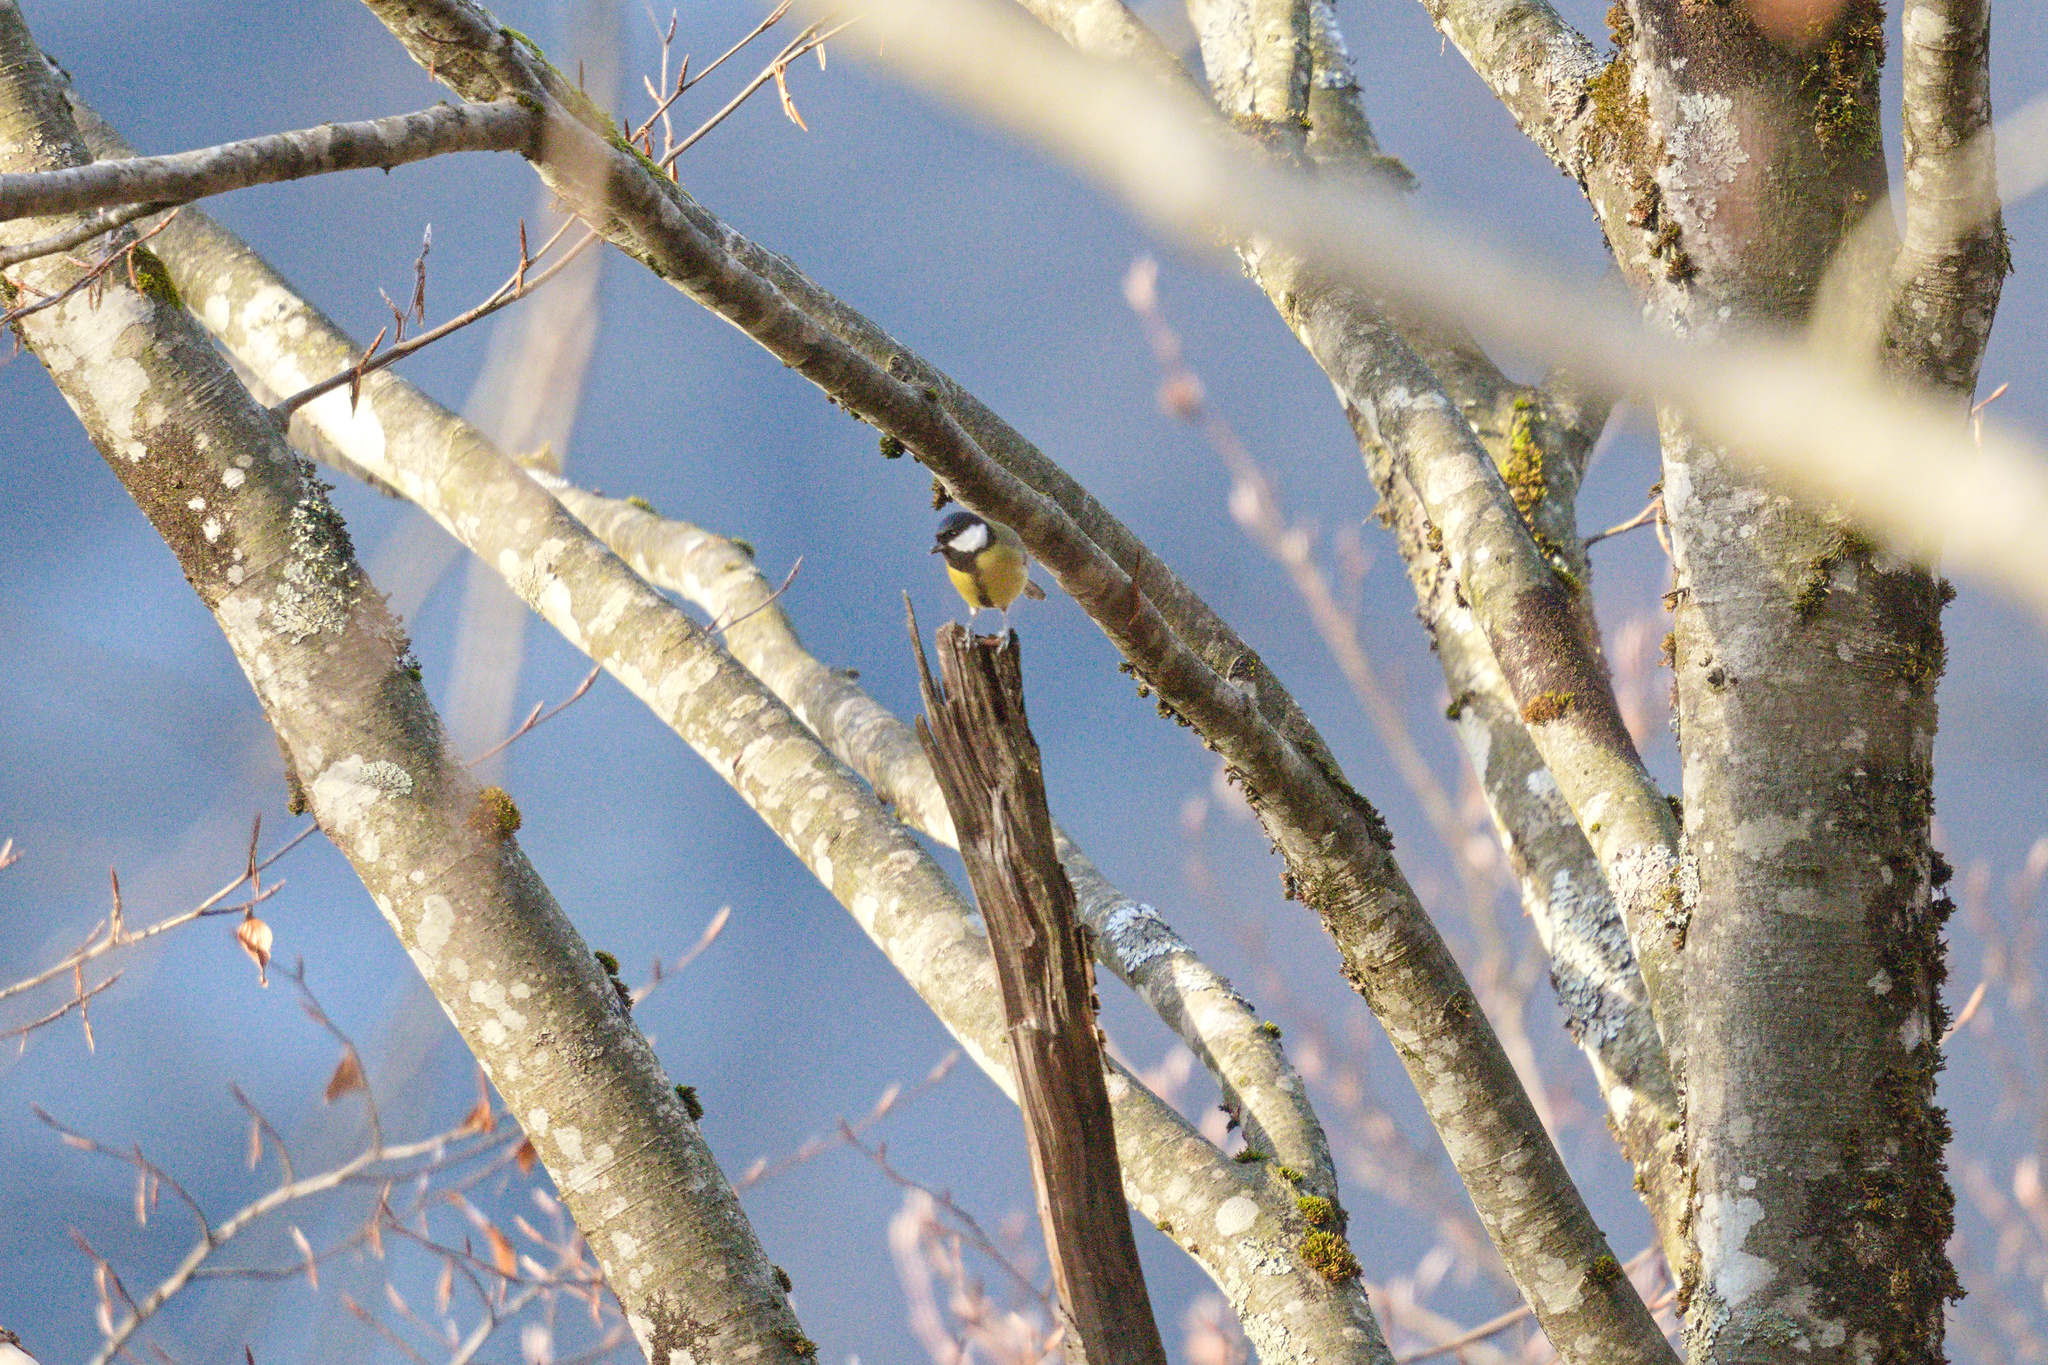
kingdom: Animalia
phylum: Chordata
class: Aves
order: Passeriformes
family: Paridae
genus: Parus
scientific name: Parus major
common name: Great tit
